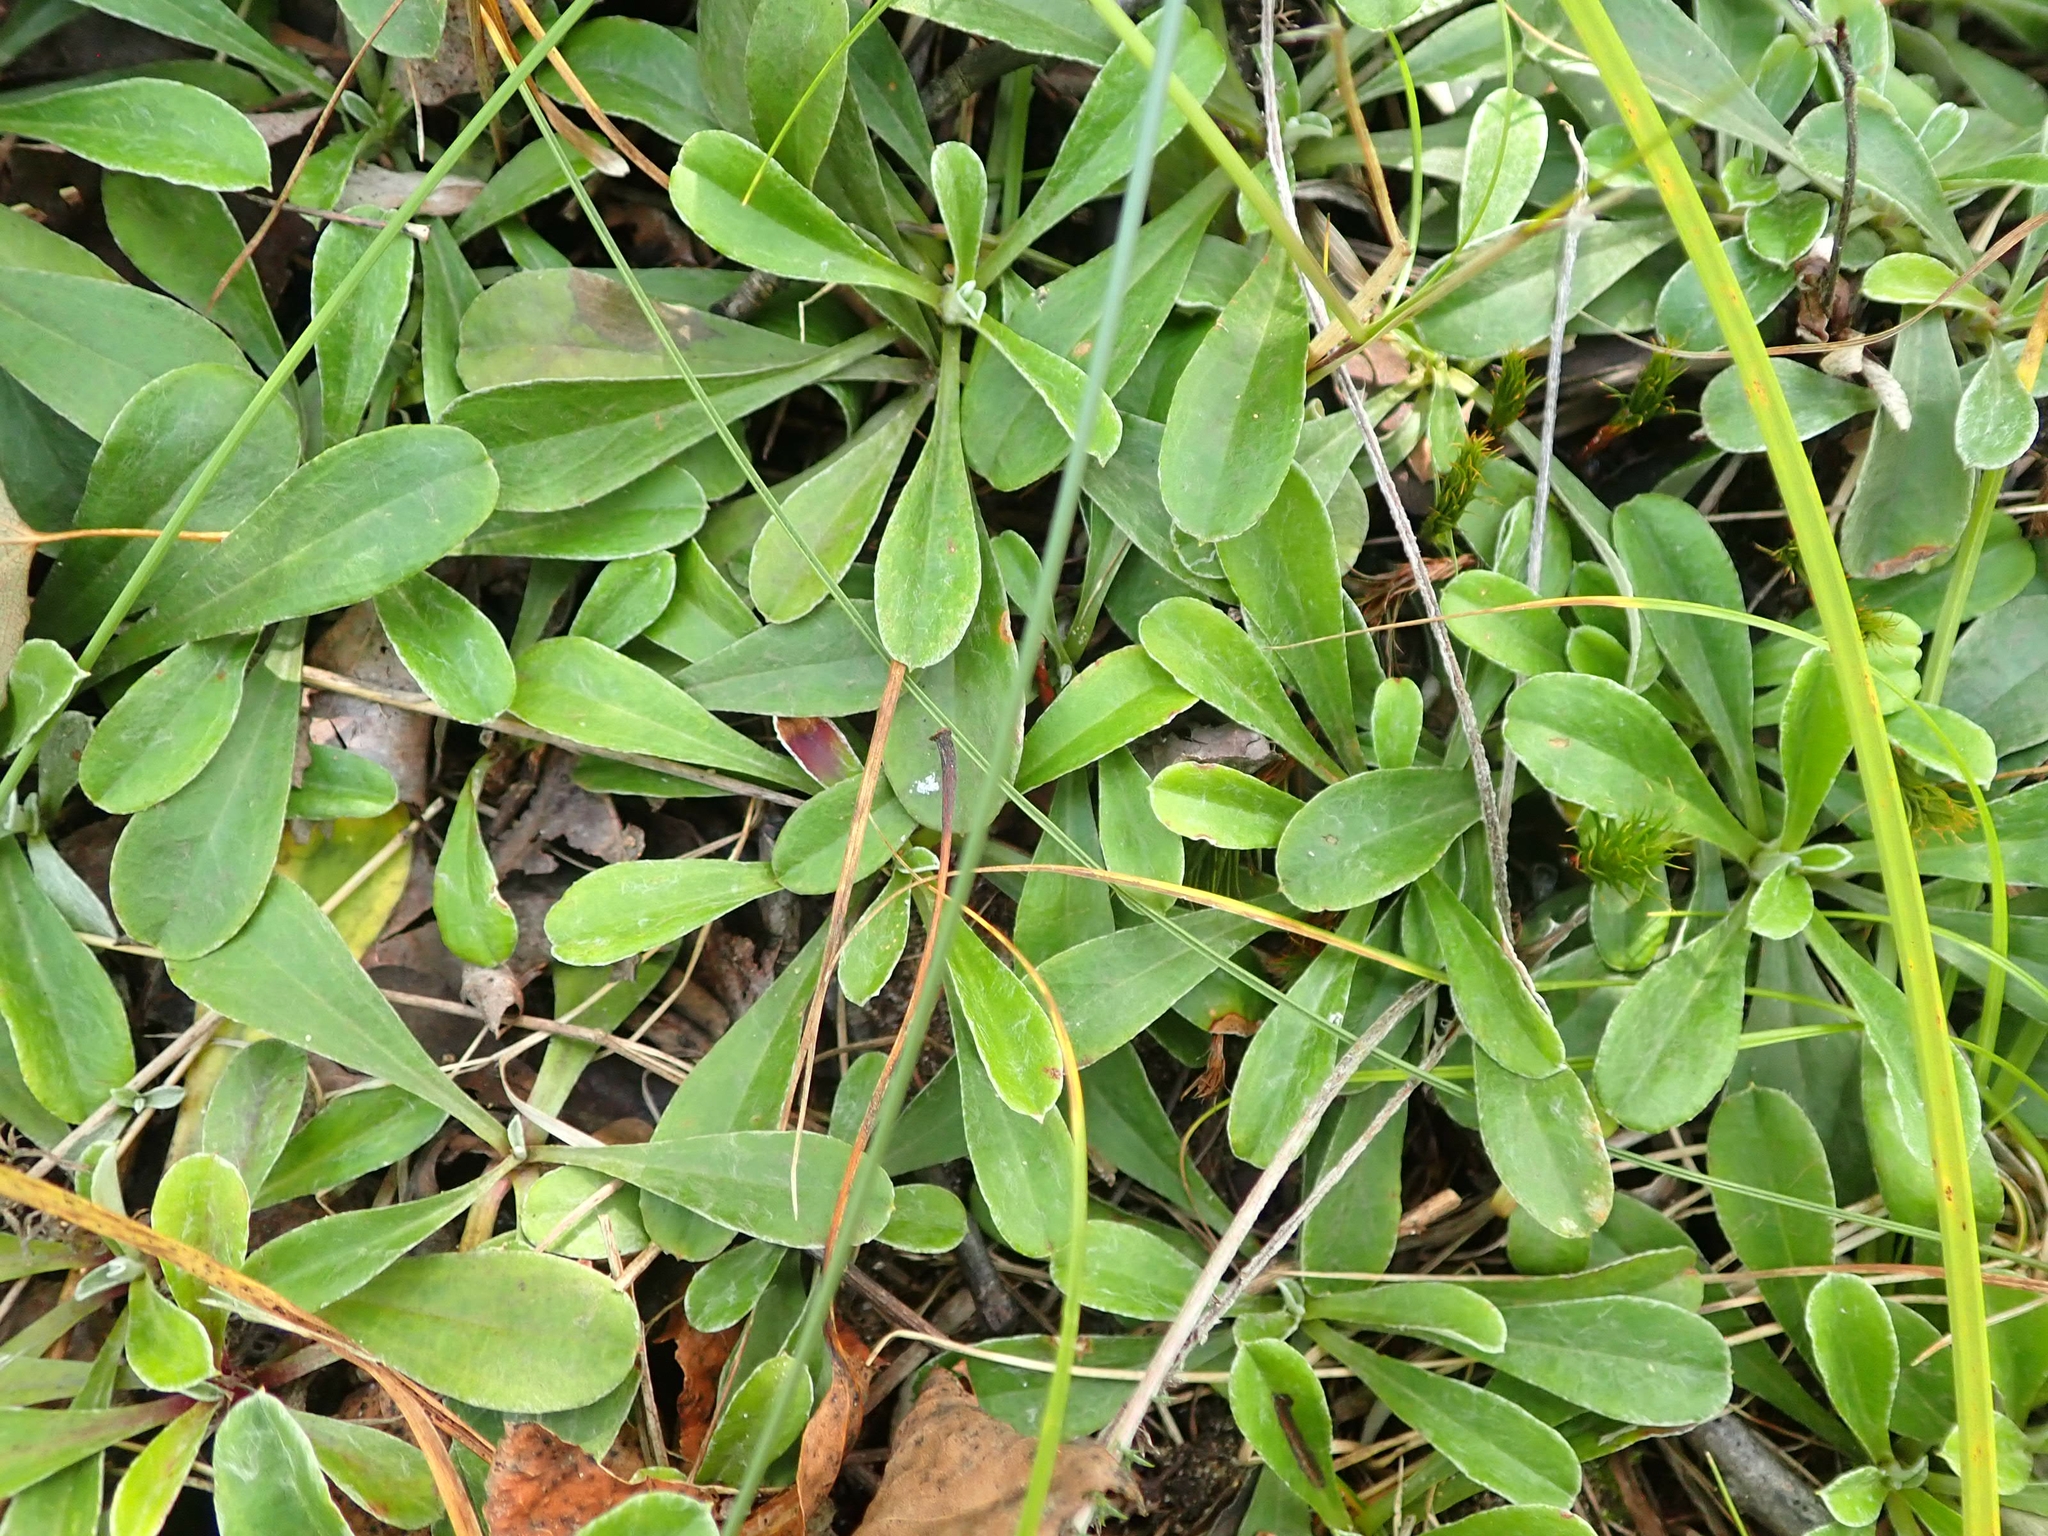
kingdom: Plantae
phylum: Tracheophyta
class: Magnoliopsida
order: Asterales
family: Asteraceae
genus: Antennaria
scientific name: Antennaria howellii
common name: Howell's pussytoes
